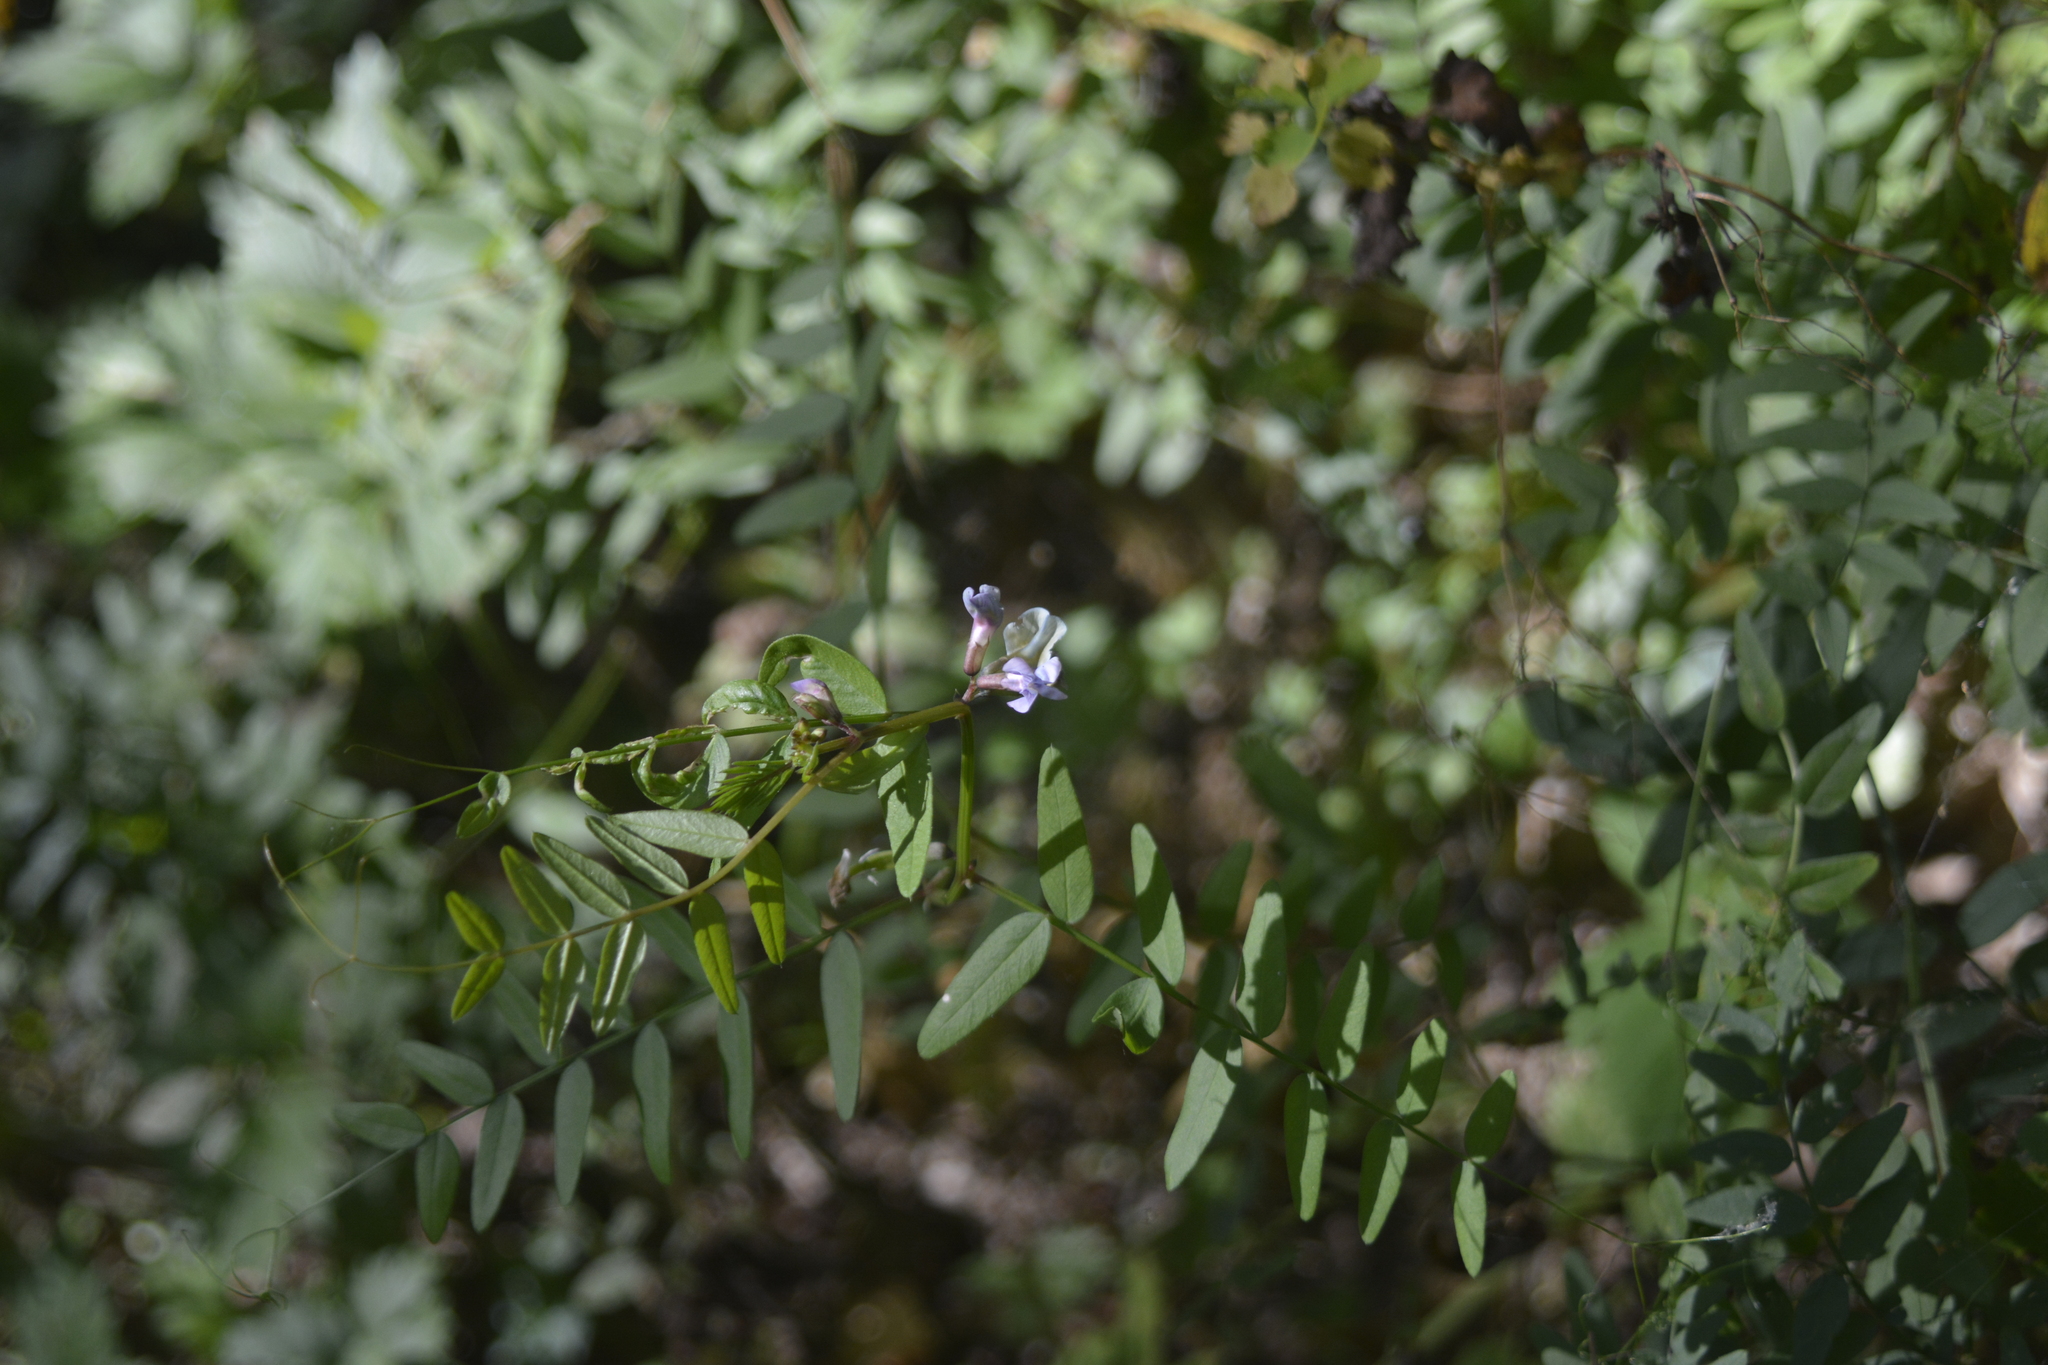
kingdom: Plantae
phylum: Tracheophyta
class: Magnoliopsida
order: Fabales
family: Fabaceae
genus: Vicia
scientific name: Vicia sepium
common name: Bush vetch
